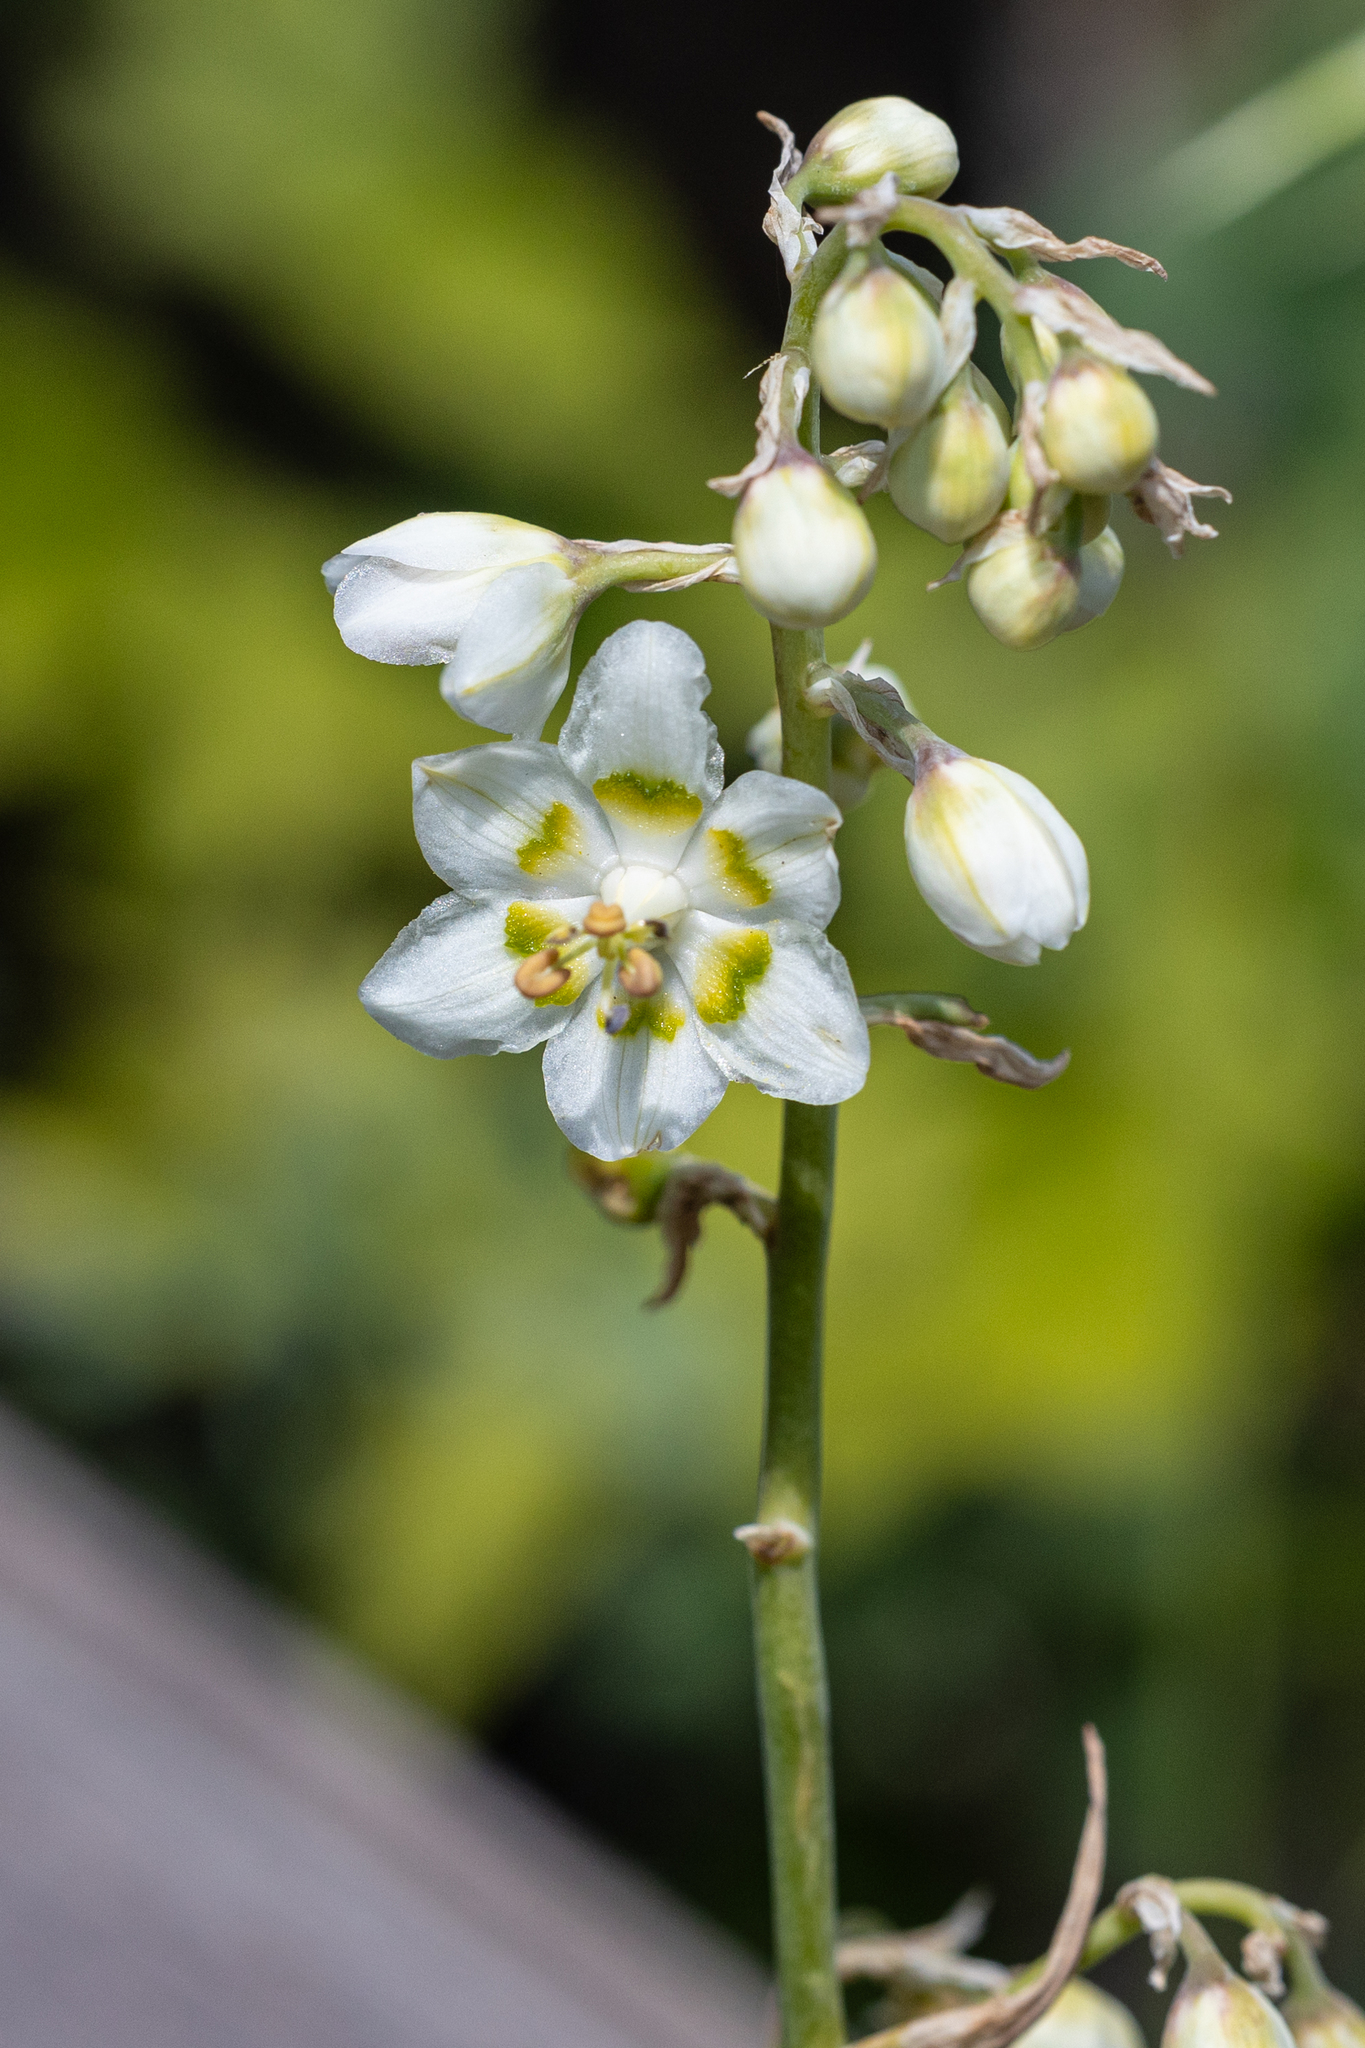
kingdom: Plantae
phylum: Tracheophyta
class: Liliopsida
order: Liliales
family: Melanthiaceae
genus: Anticlea
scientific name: Anticlea elegans
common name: Mountain death camas
